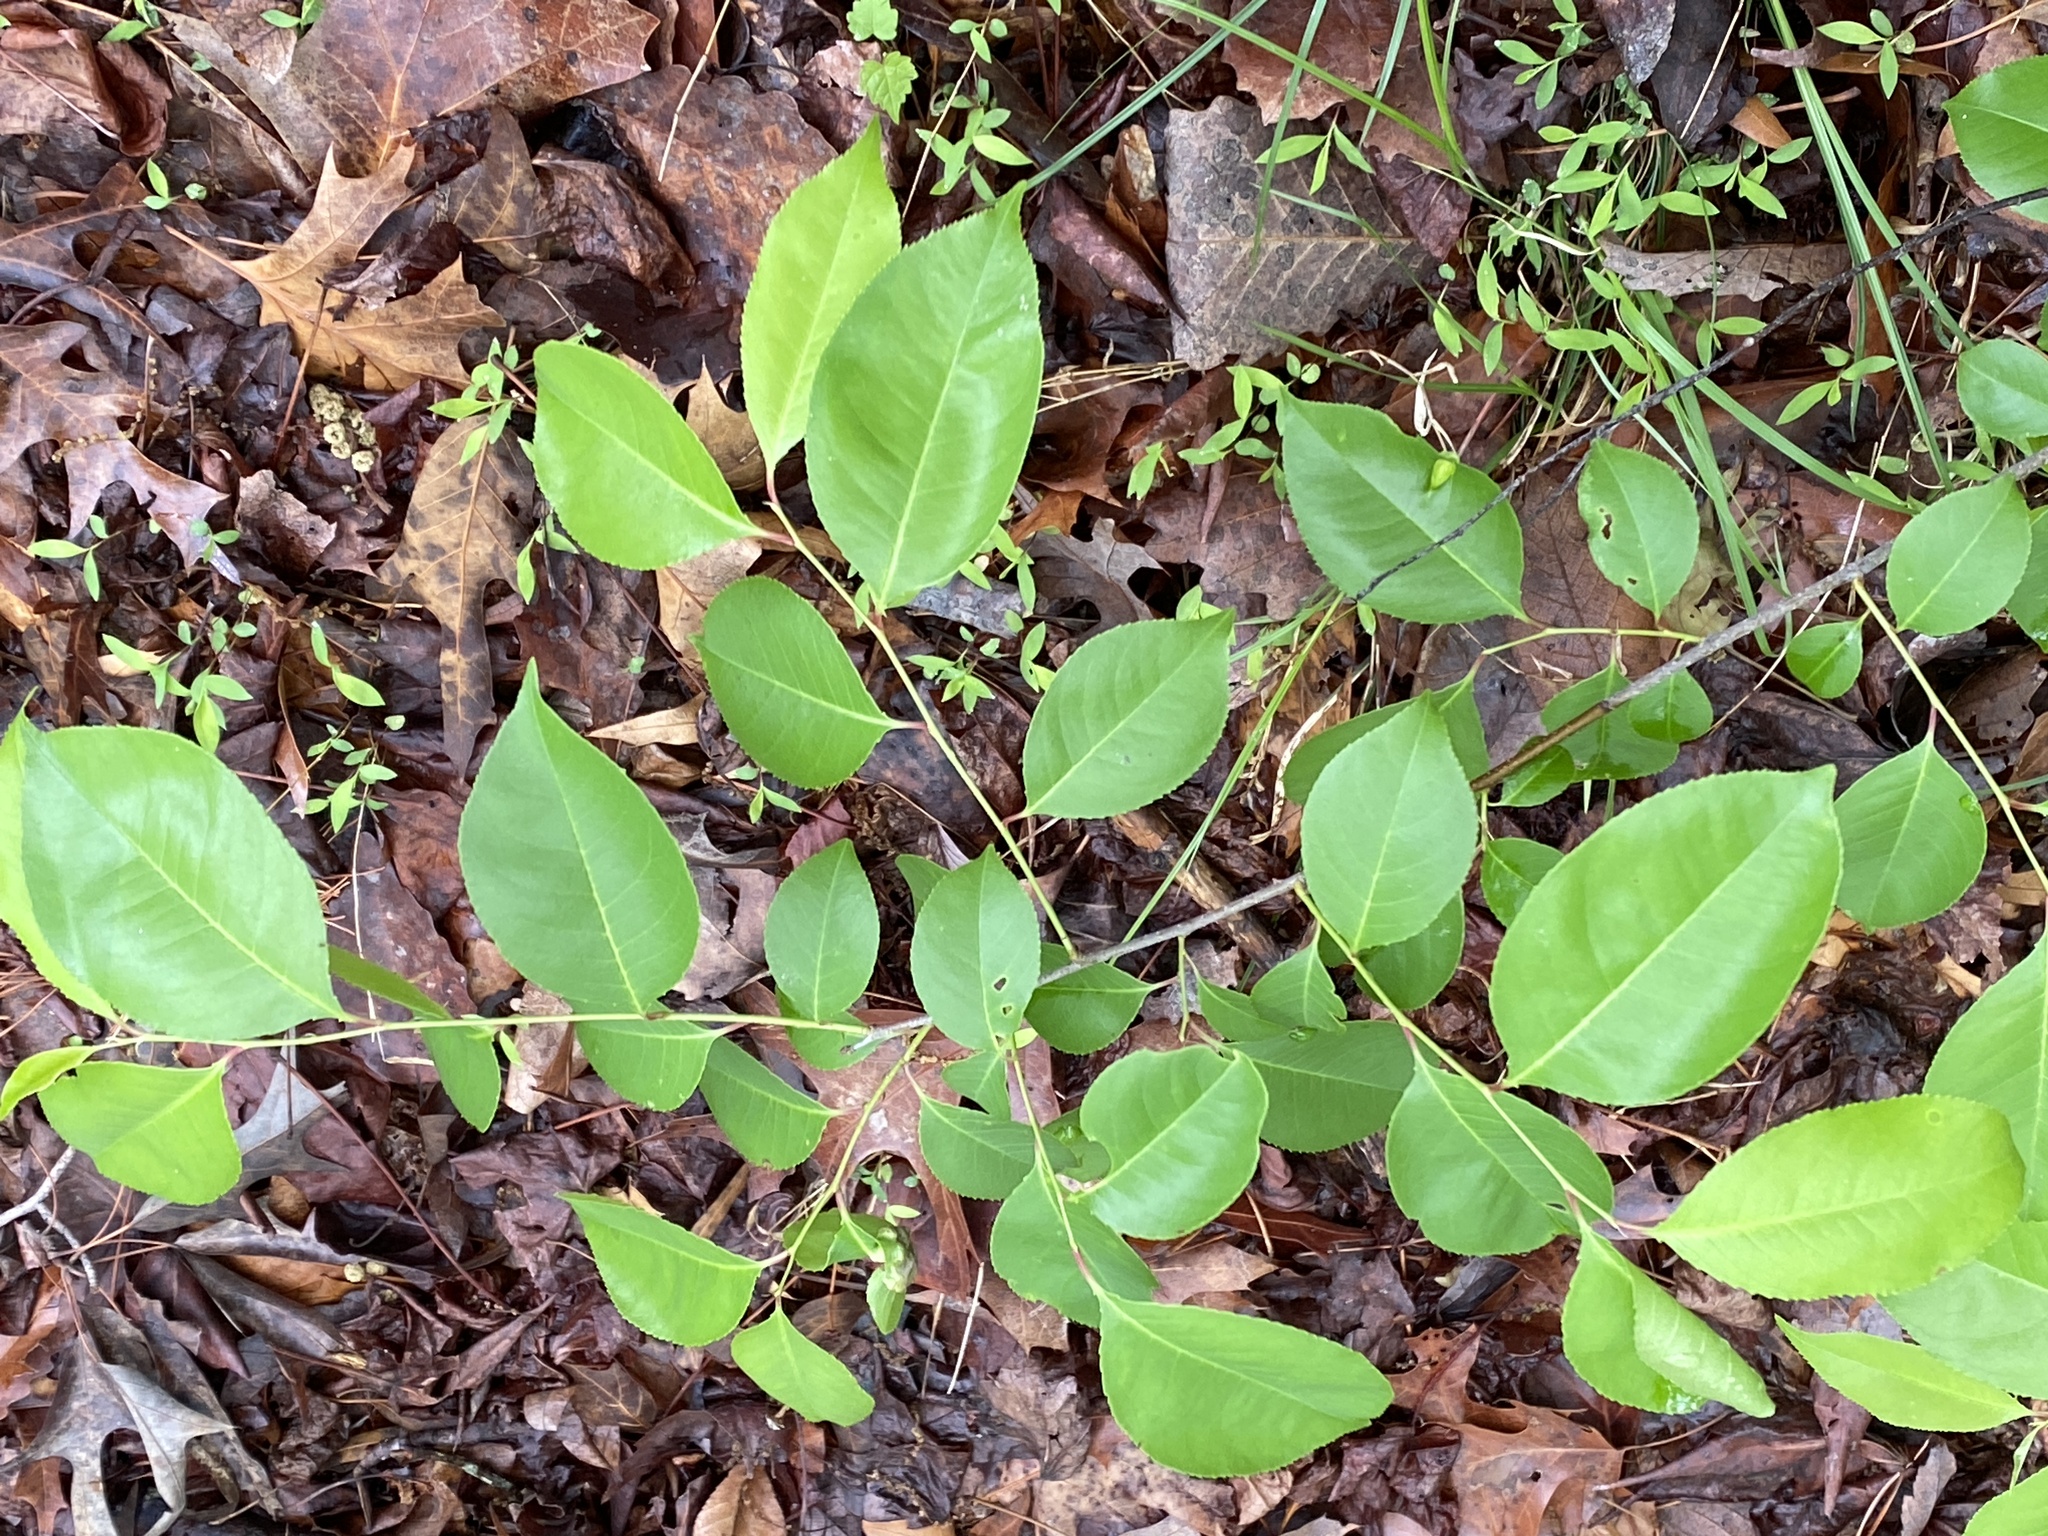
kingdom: Plantae
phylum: Tracheophyta
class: Magnoliopsida
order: Rosales
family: Rosaceae
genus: Prunus
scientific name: Prunus serotina
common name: Black cherry
